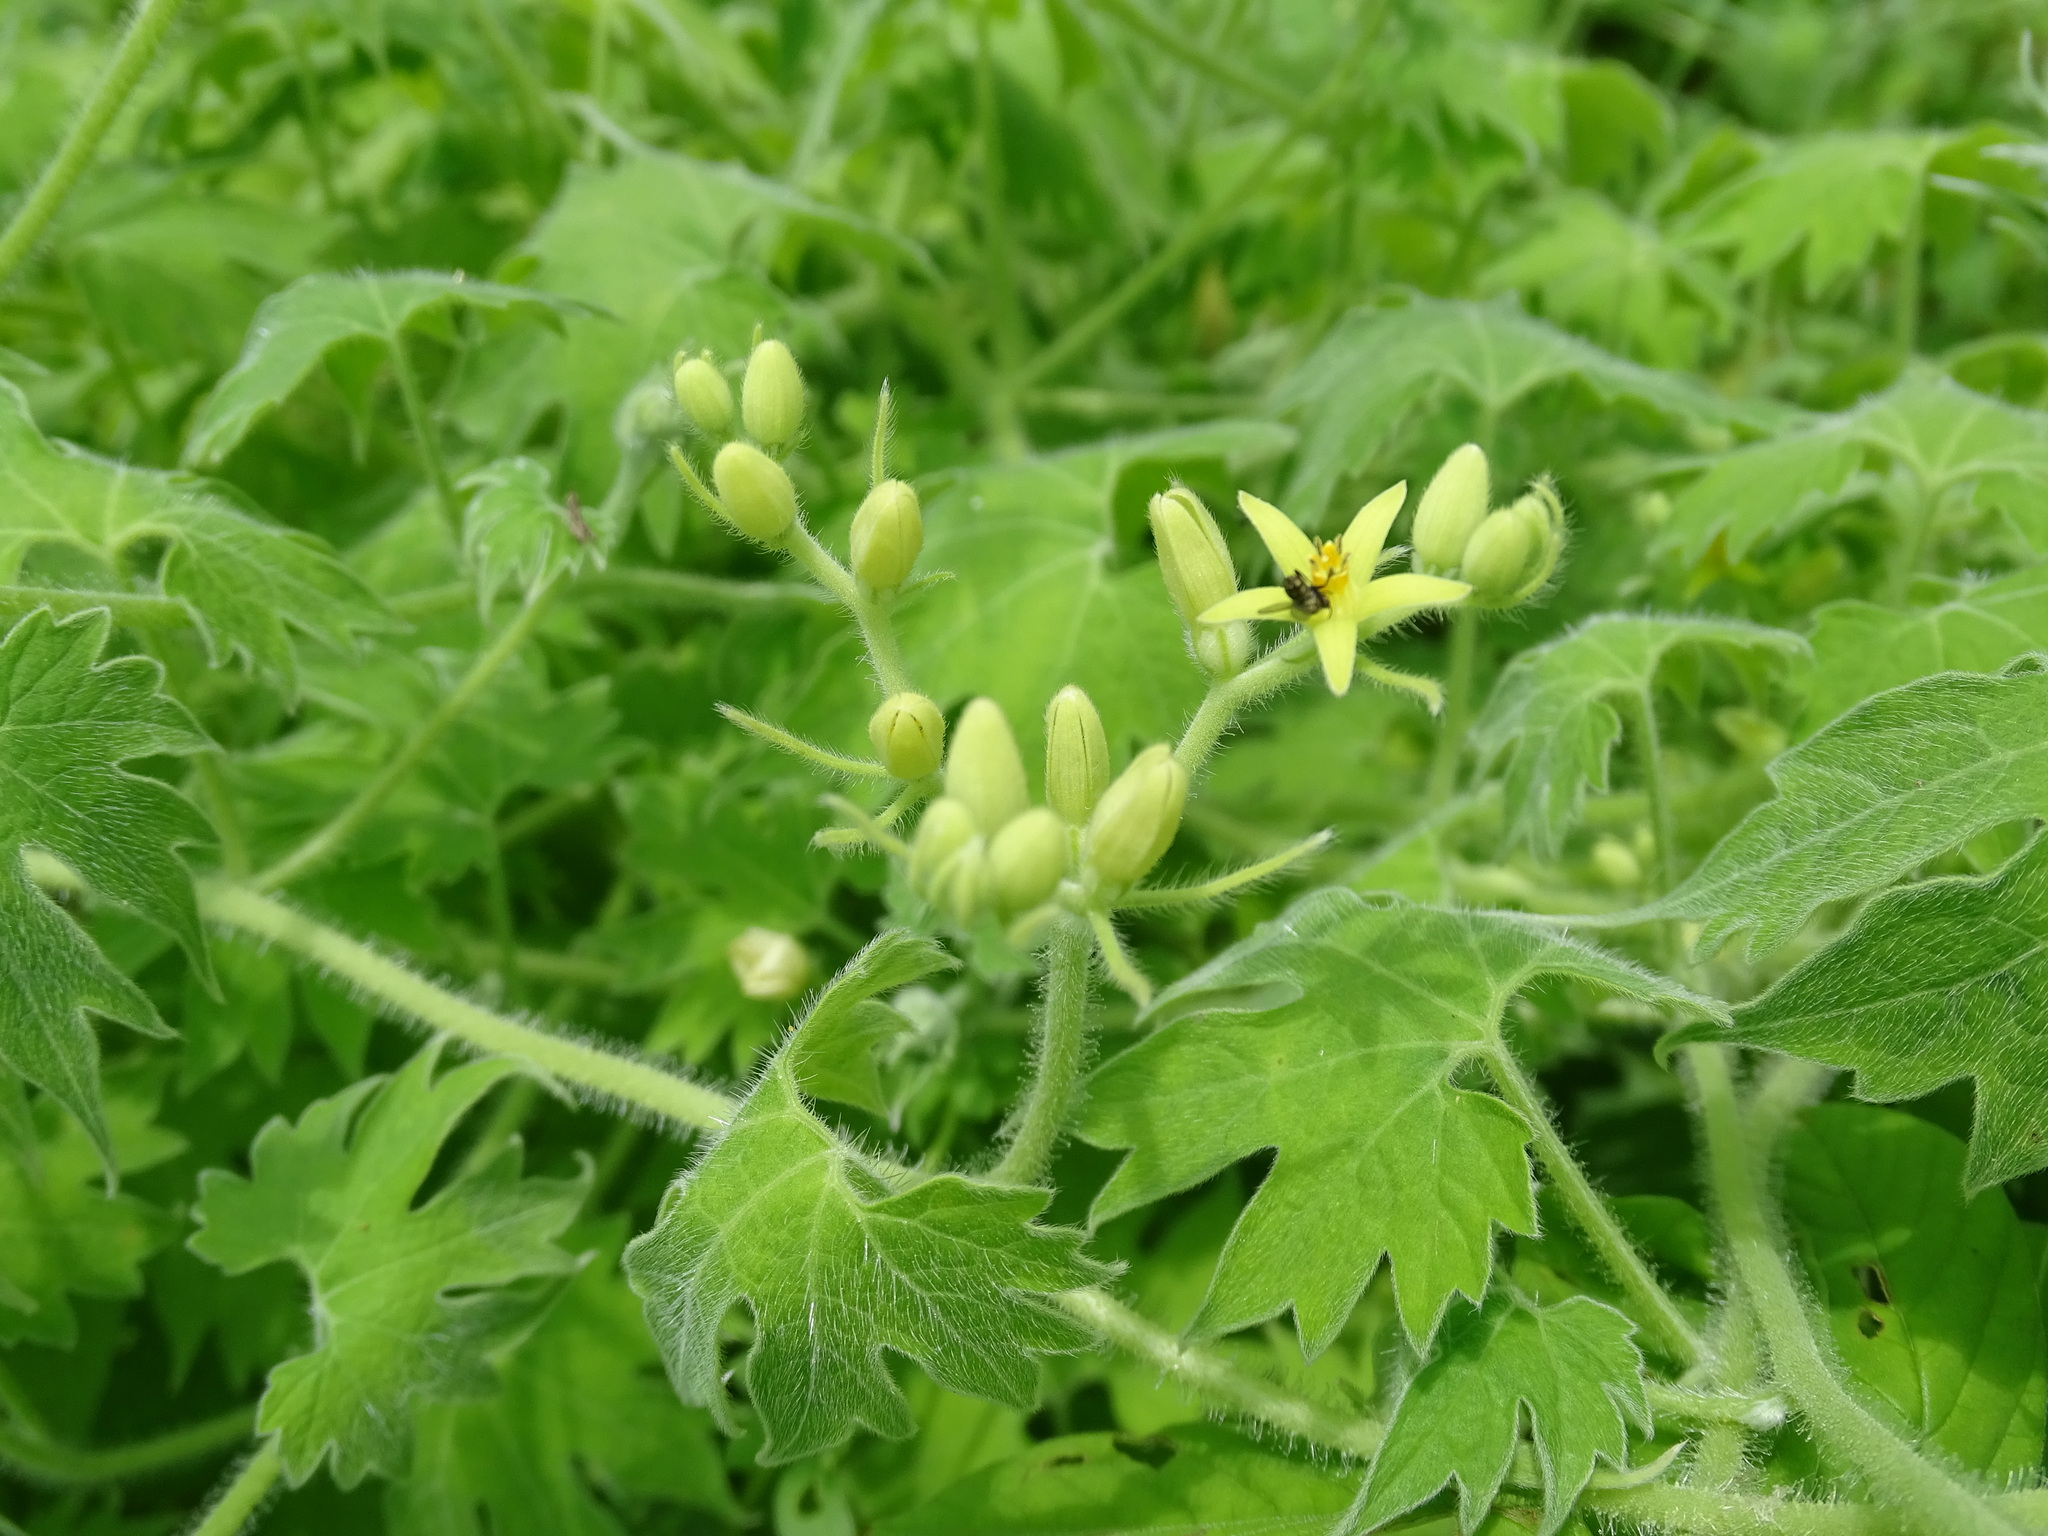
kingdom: Plantae
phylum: Tracheophyta
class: Magnoliopsida
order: Cornales
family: Loasaceae
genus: Gronovia
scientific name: Gronovia scandens
